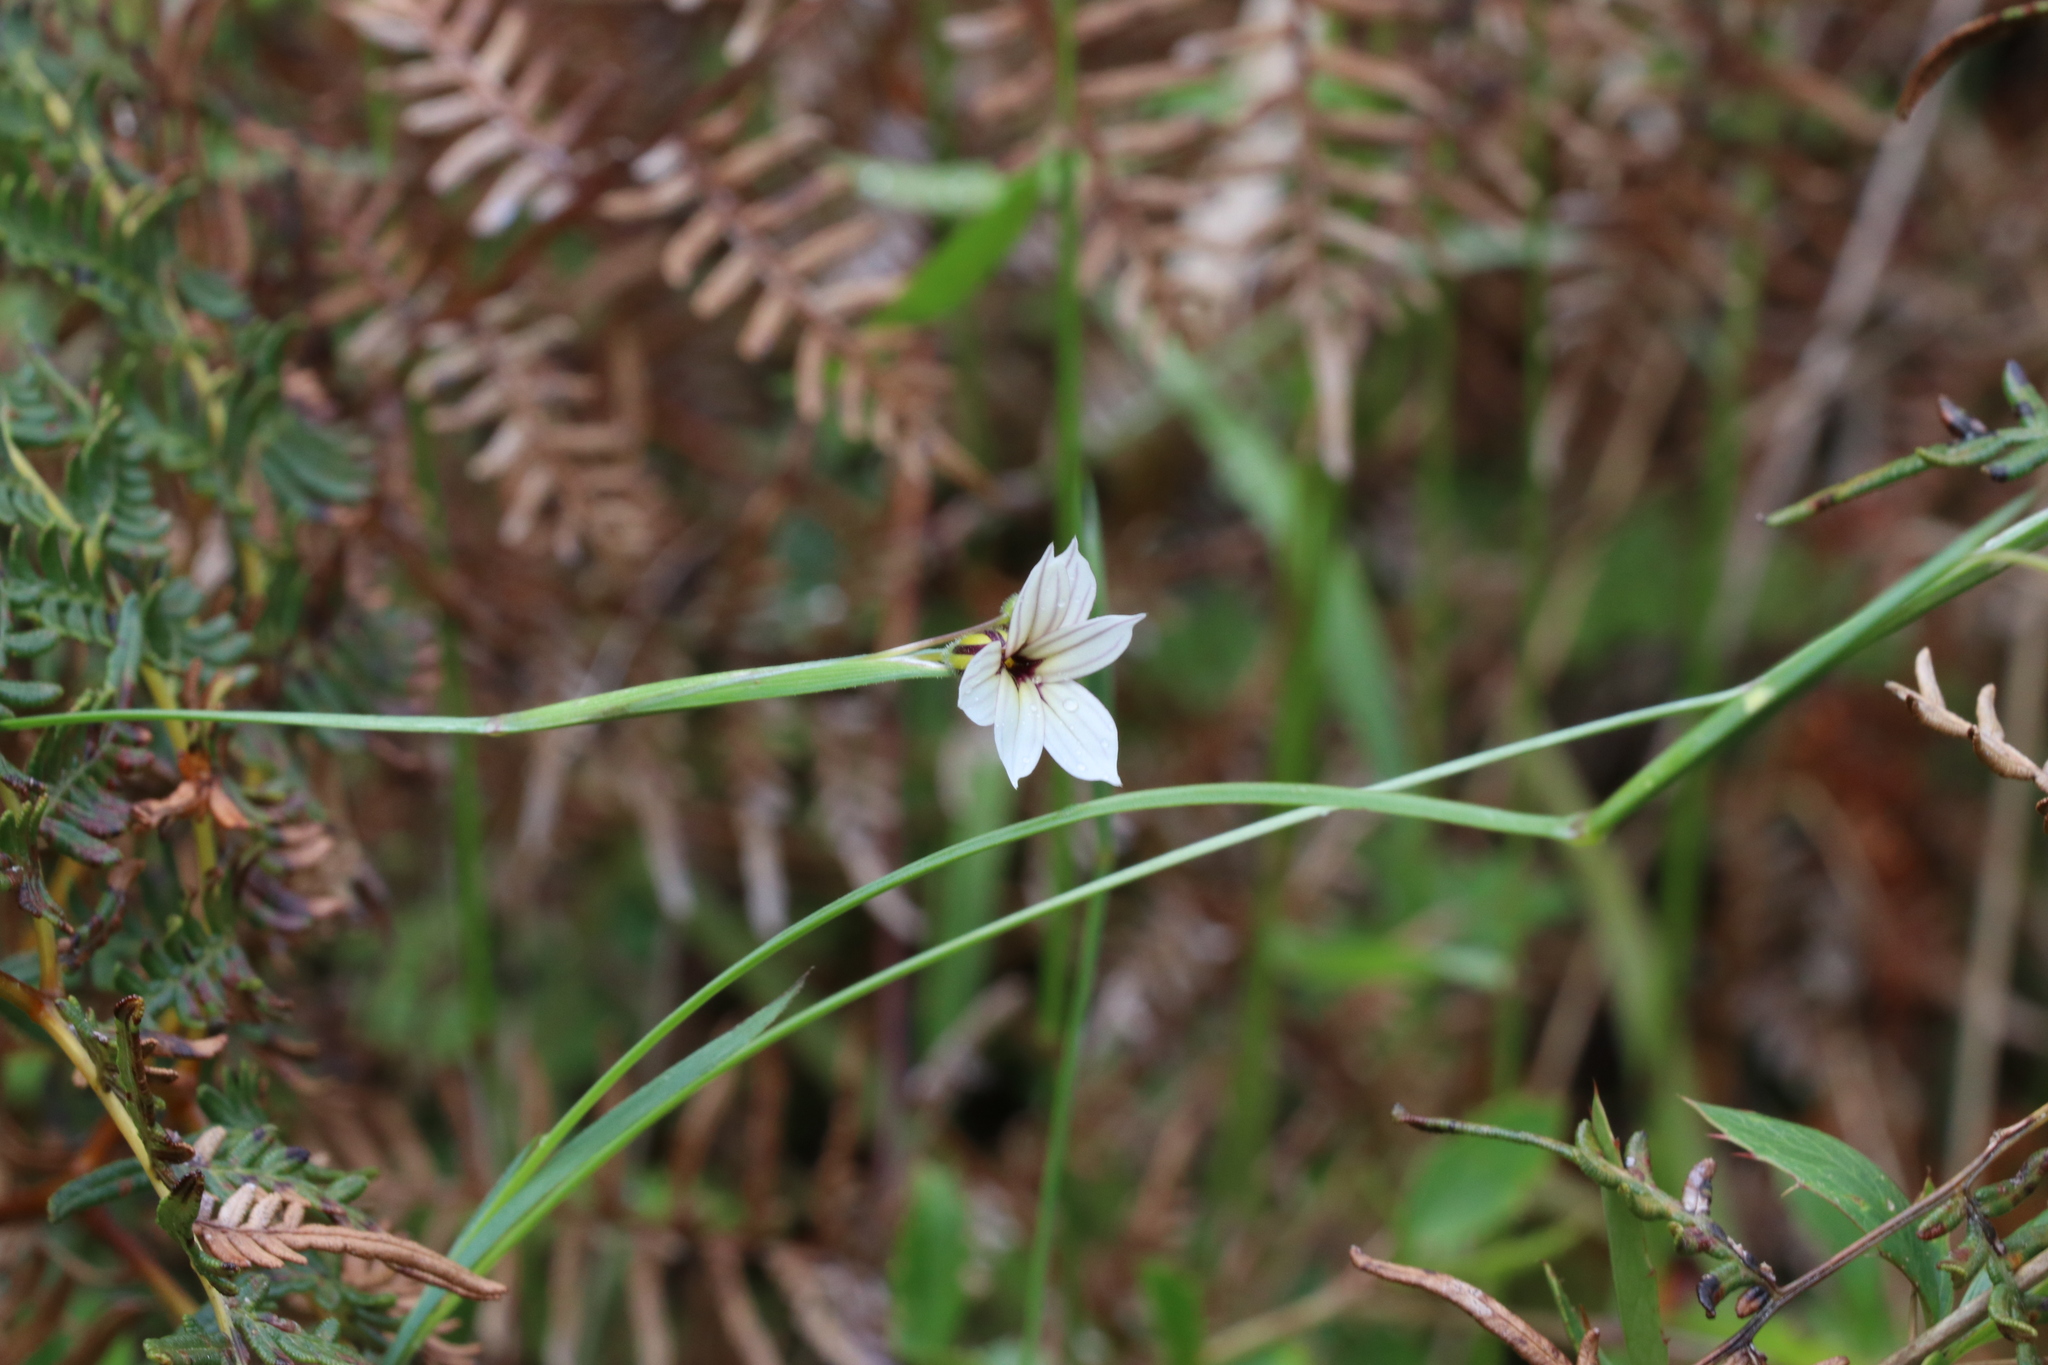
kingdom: Plantae
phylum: Tracheophyta
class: Liliopsida
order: Asparagales
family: Iridaceae
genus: Sisyrinchium
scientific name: Sisyrinchium micranthum
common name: Bermuda pigroot
